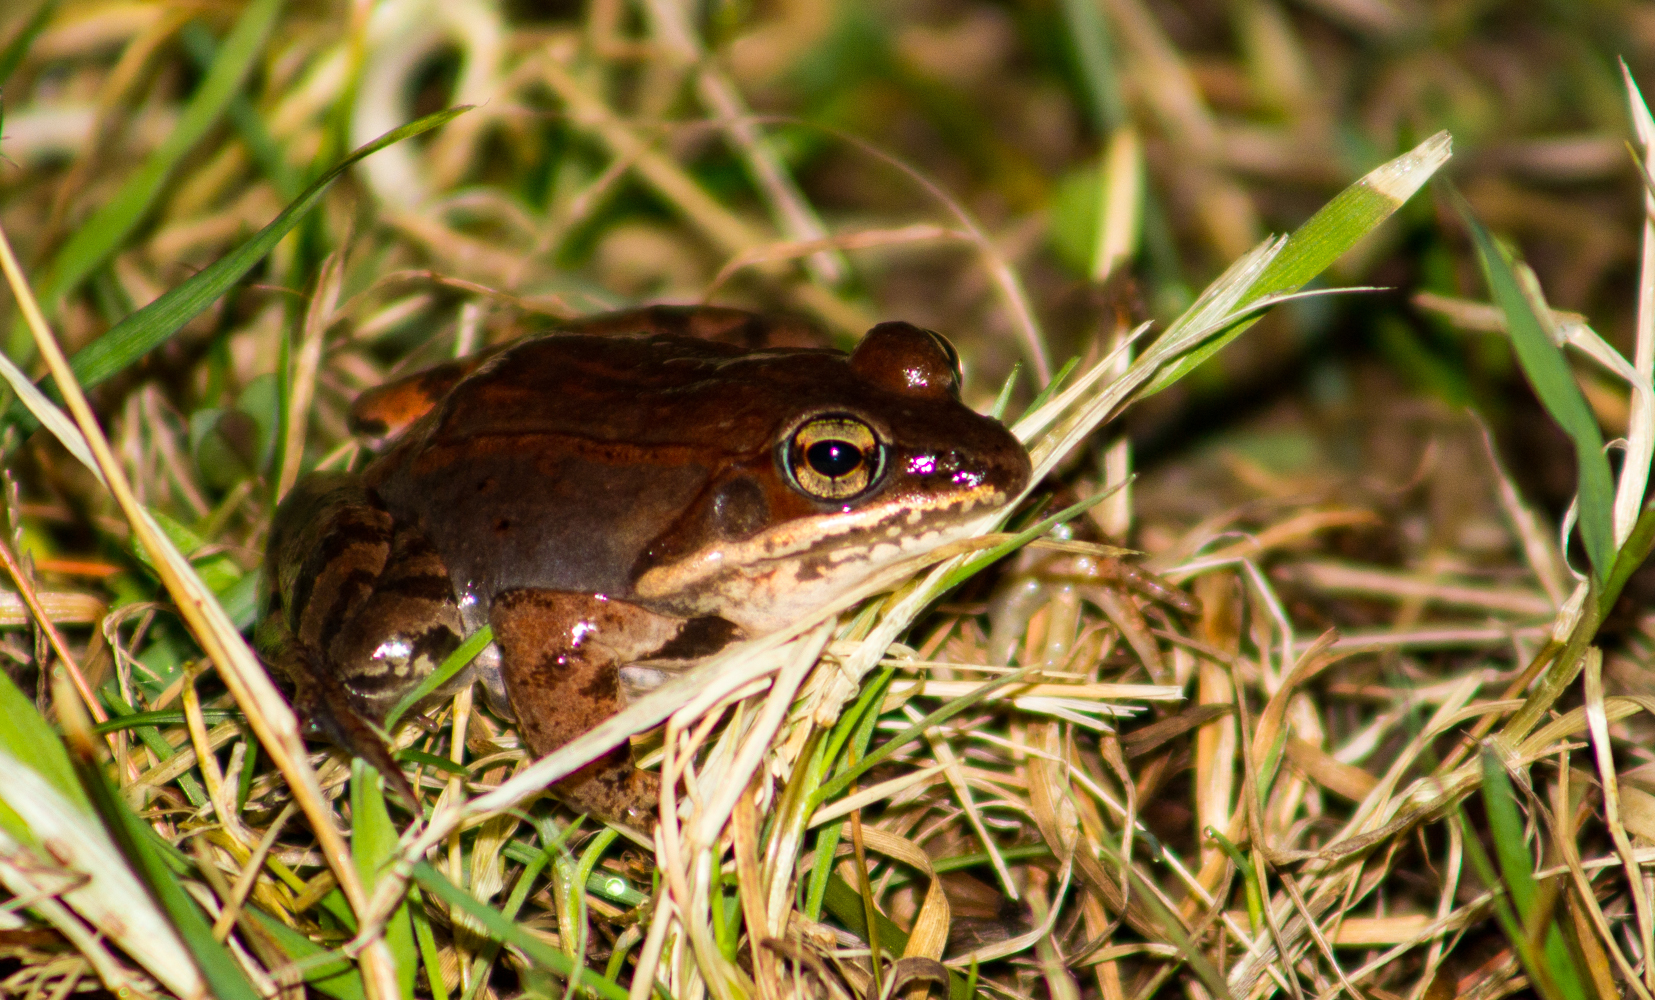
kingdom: Animalia
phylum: Chordata
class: Amphibia
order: Anura
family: Ranidae
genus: Lithobates
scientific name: Lithobates sylvaticus
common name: Wood frog
